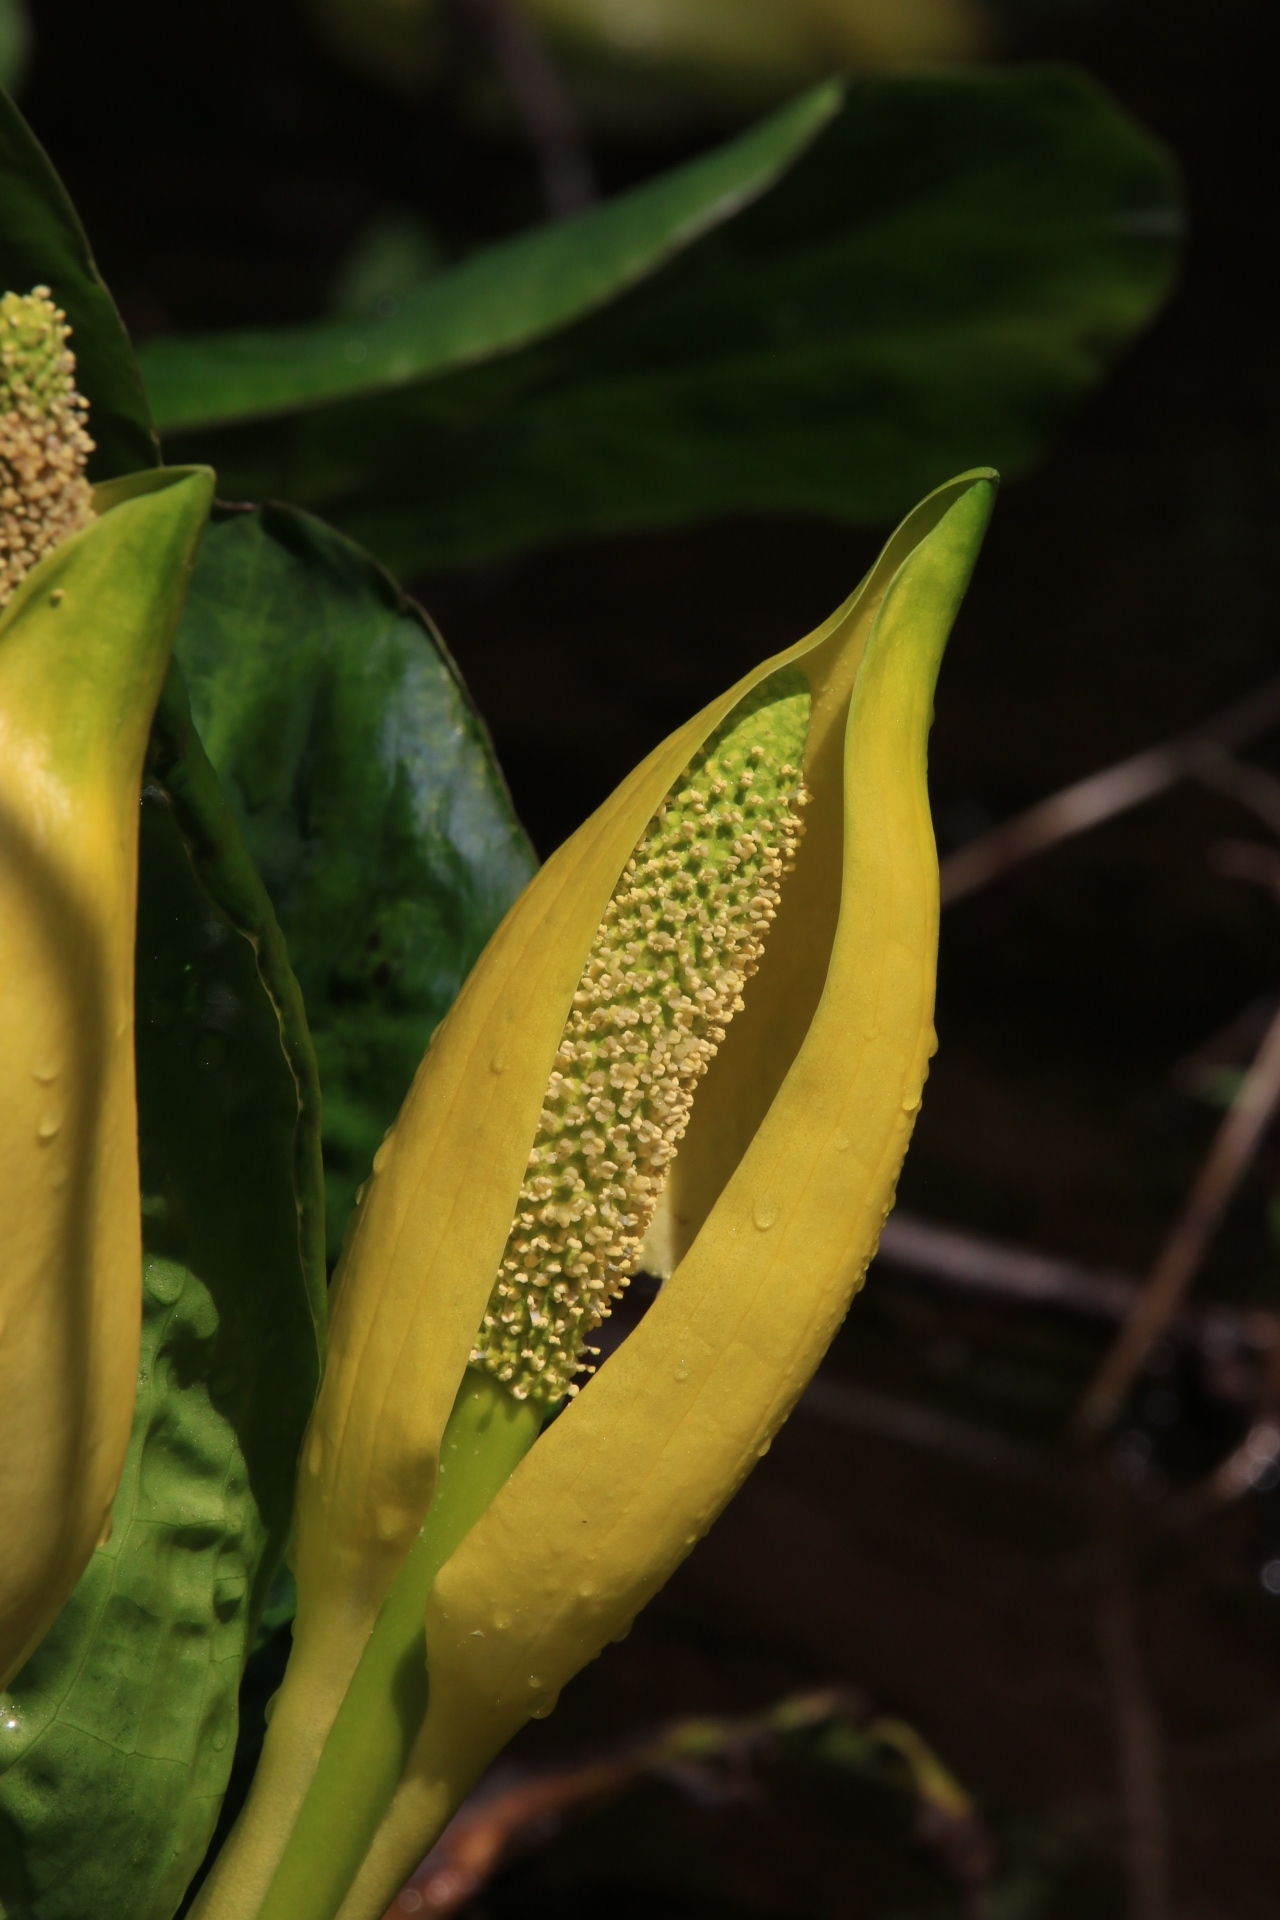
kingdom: Plantae
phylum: Tracheophyta
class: Liliopsida
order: Alismatales
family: Araceae
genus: Lysichiton
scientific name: Lysichiton americanus
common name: American skunk cabbage
